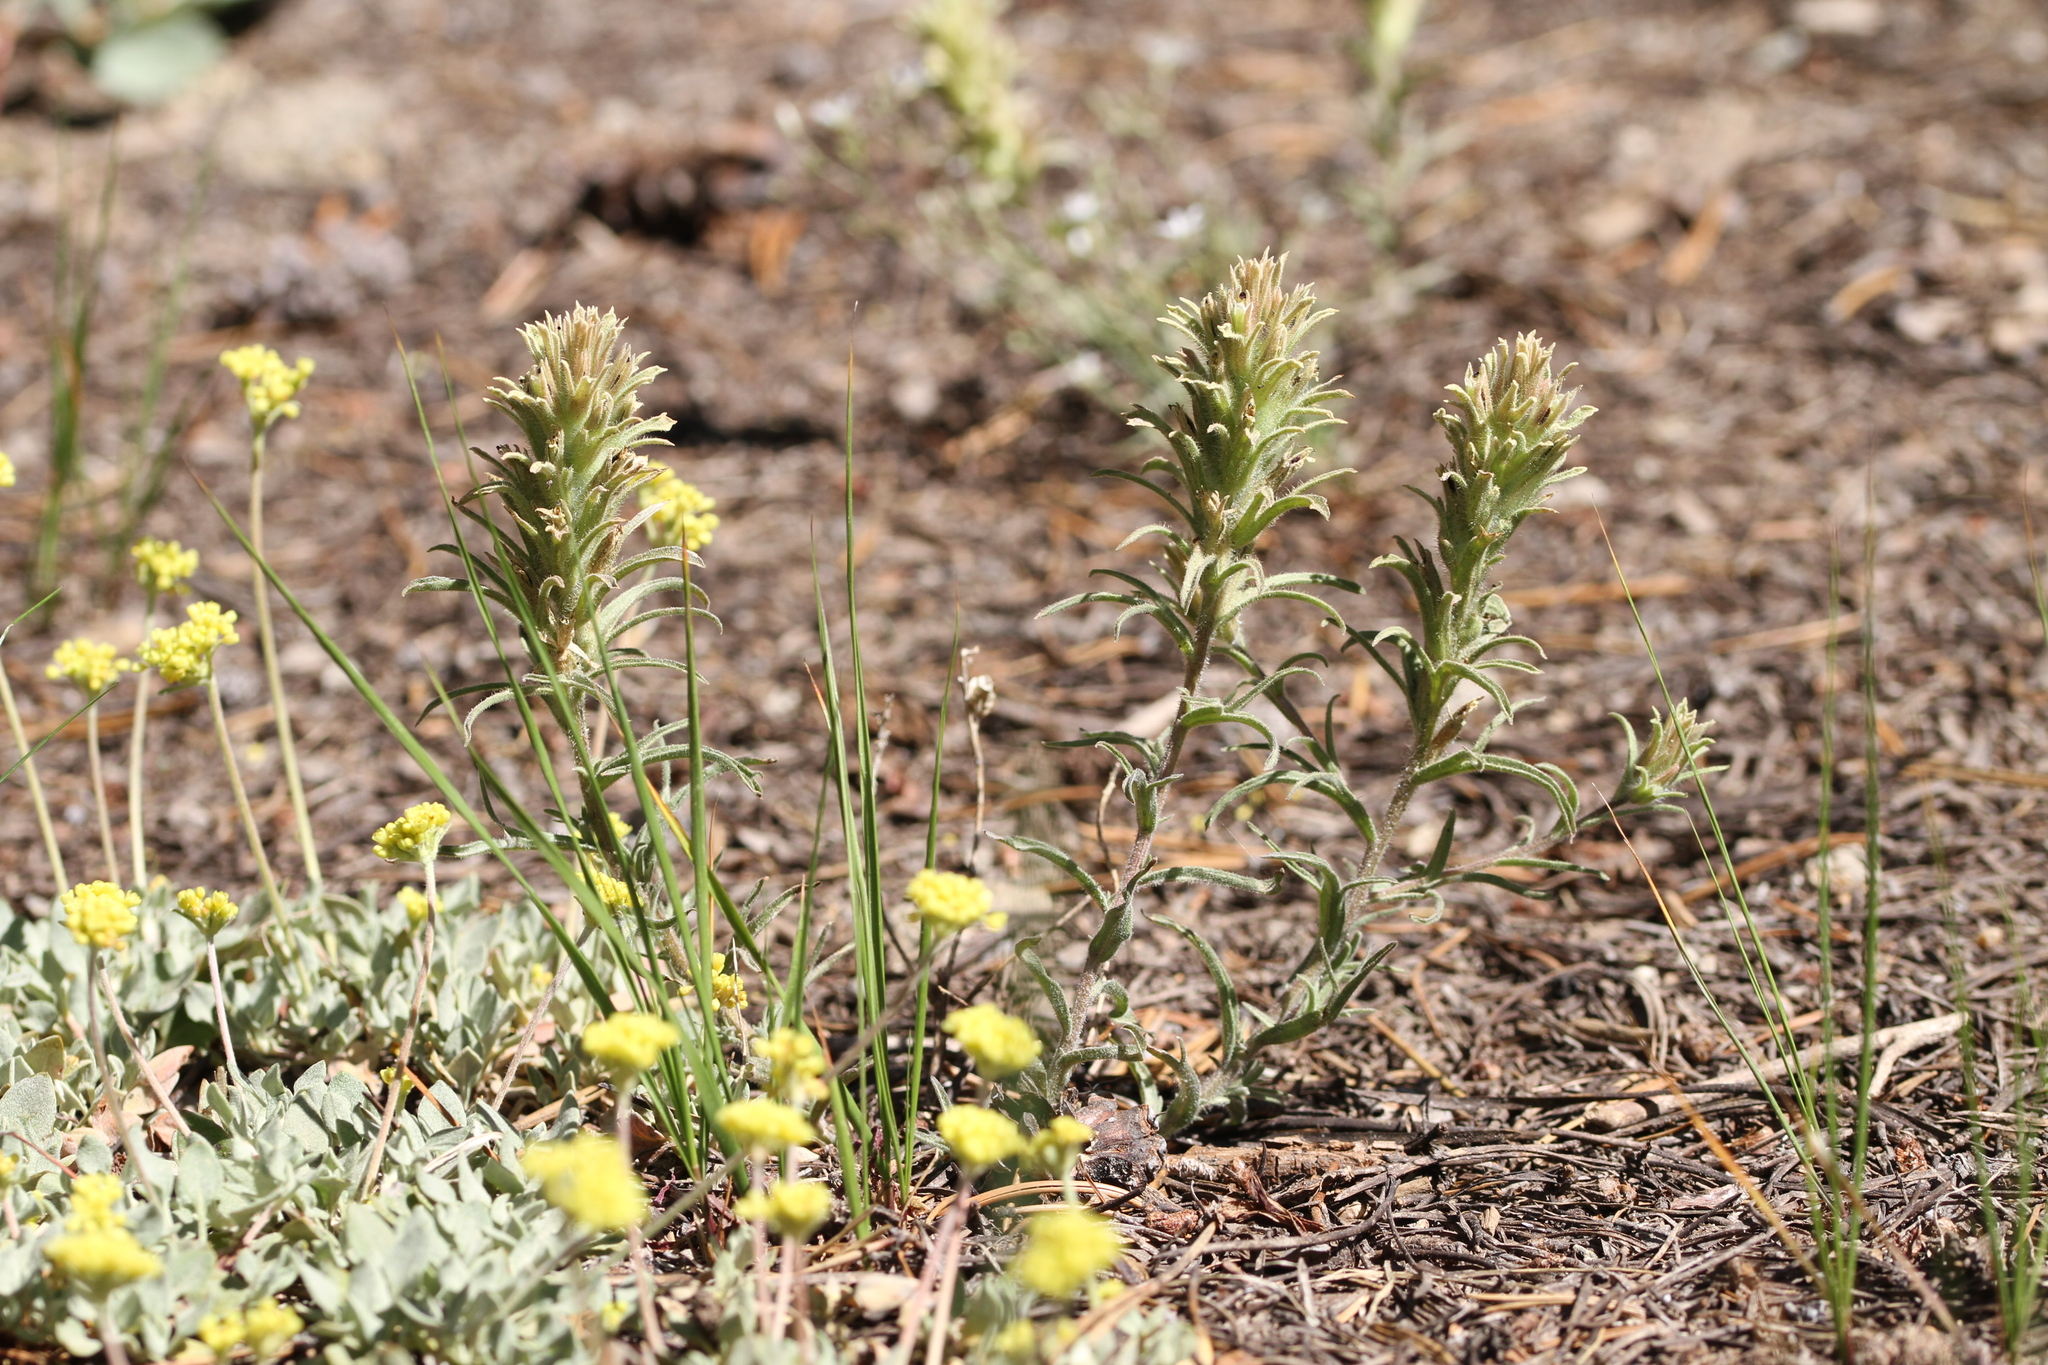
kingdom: Plantae
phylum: Tracheophyta
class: Magnoliopsida
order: Lamiales
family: Orobanchaceae
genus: Castilleja
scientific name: Castilleja nana
